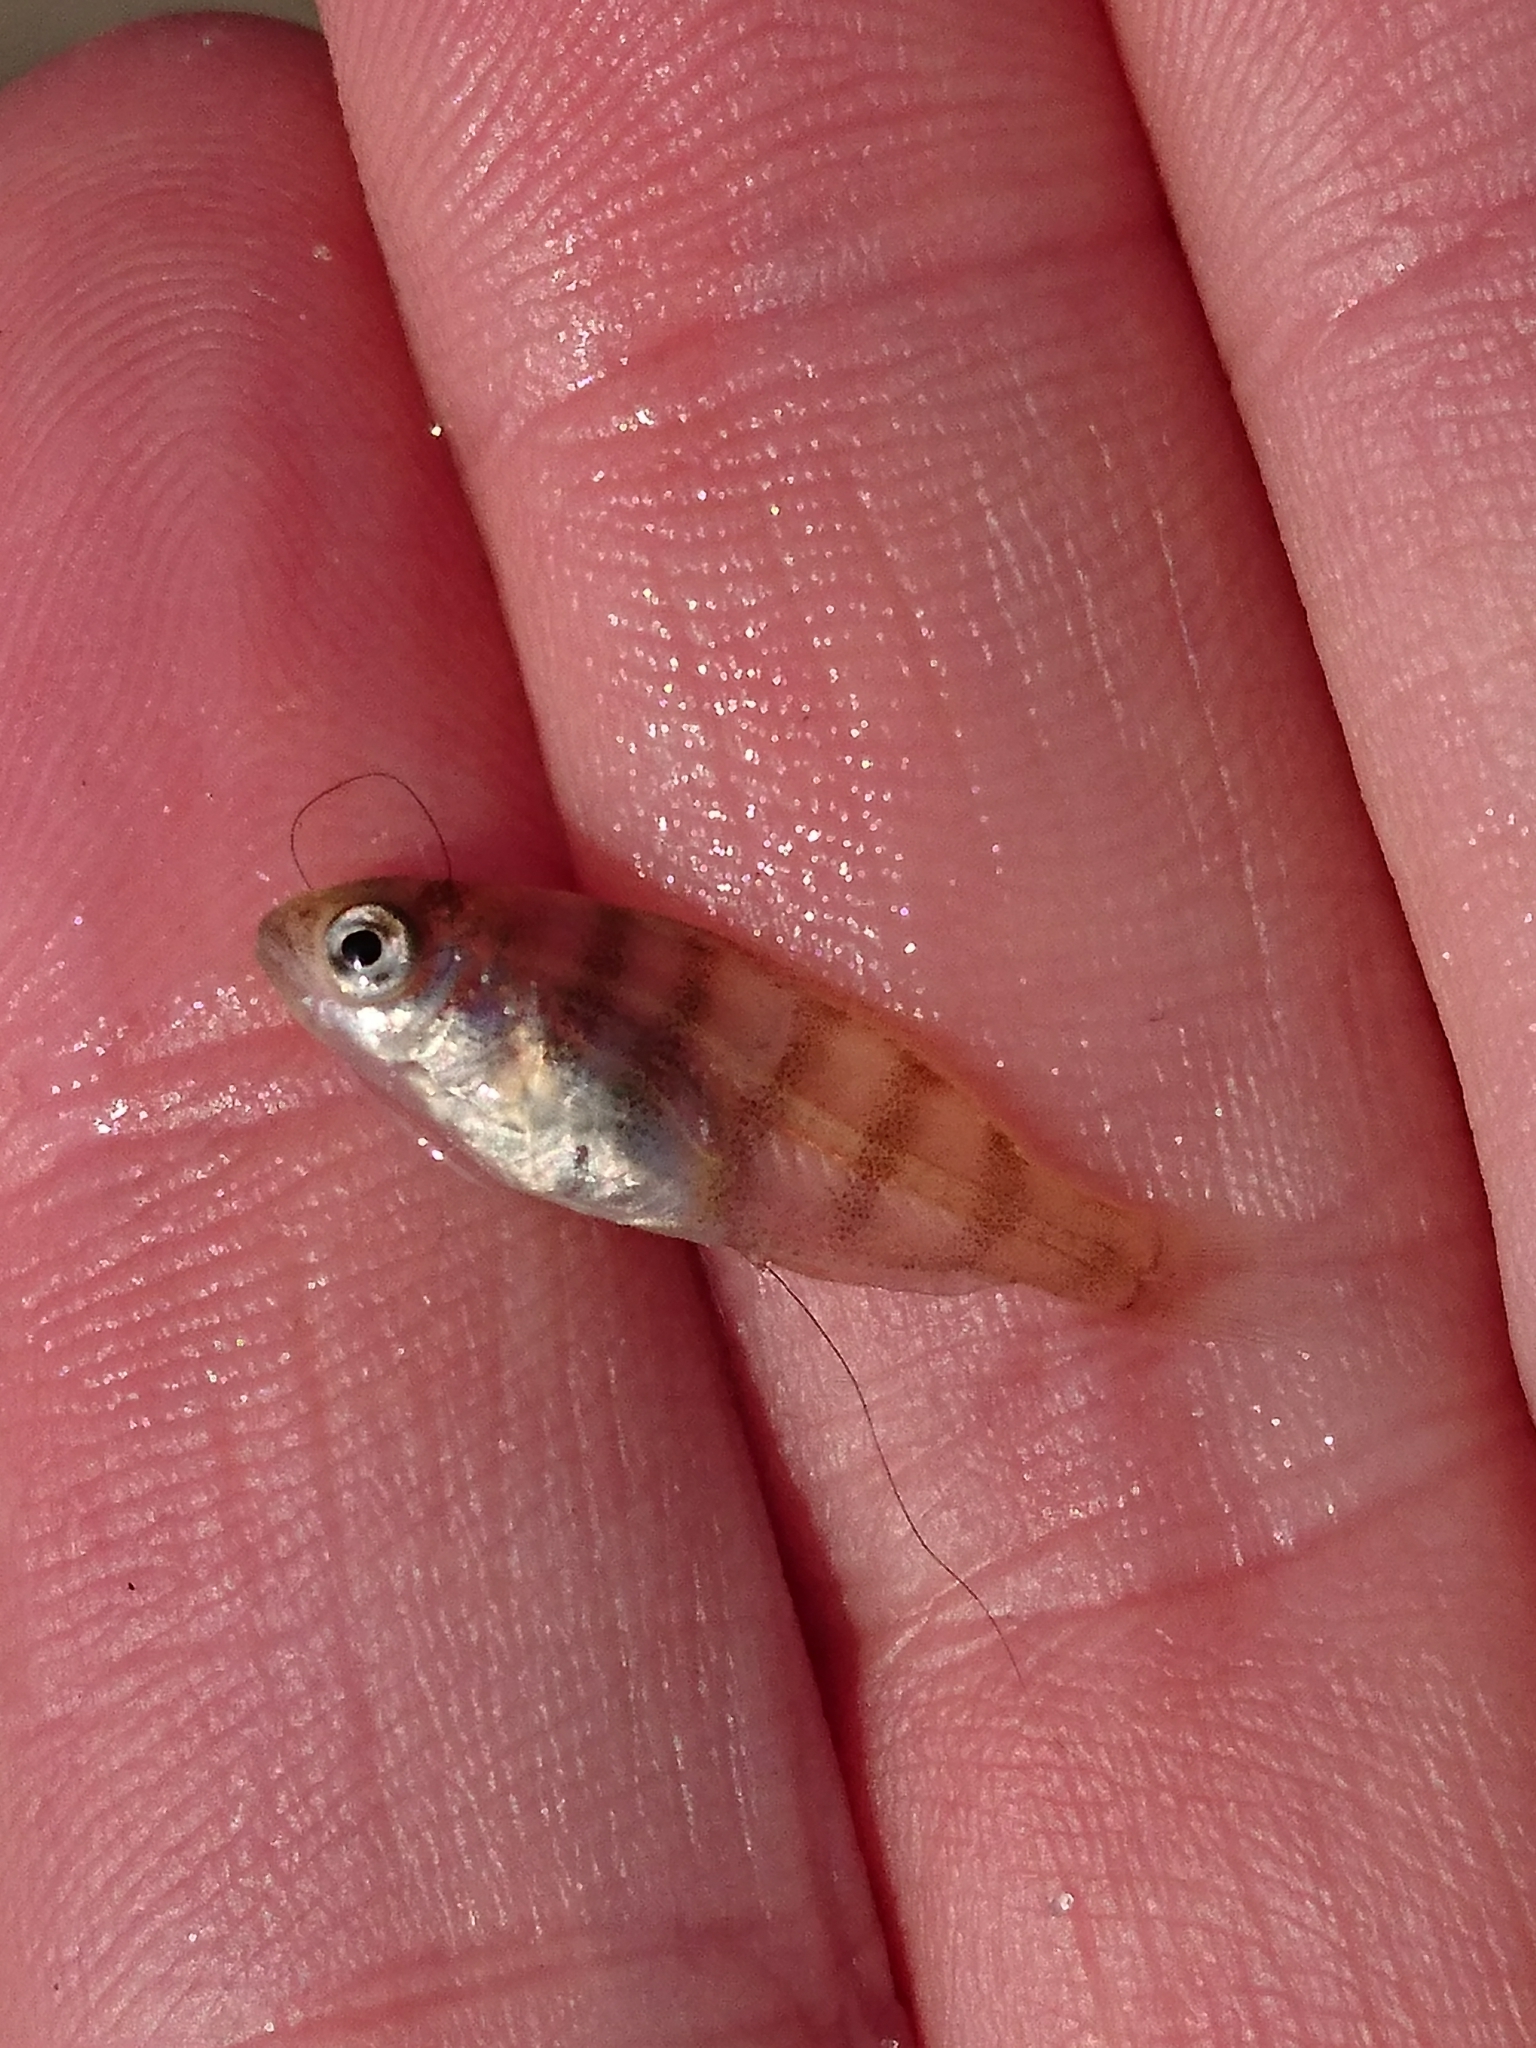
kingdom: Animalia
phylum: Chordata
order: Perciformes
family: Sparidae
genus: Lagodon
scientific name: Lagodon rhomboides
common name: Pinfish
